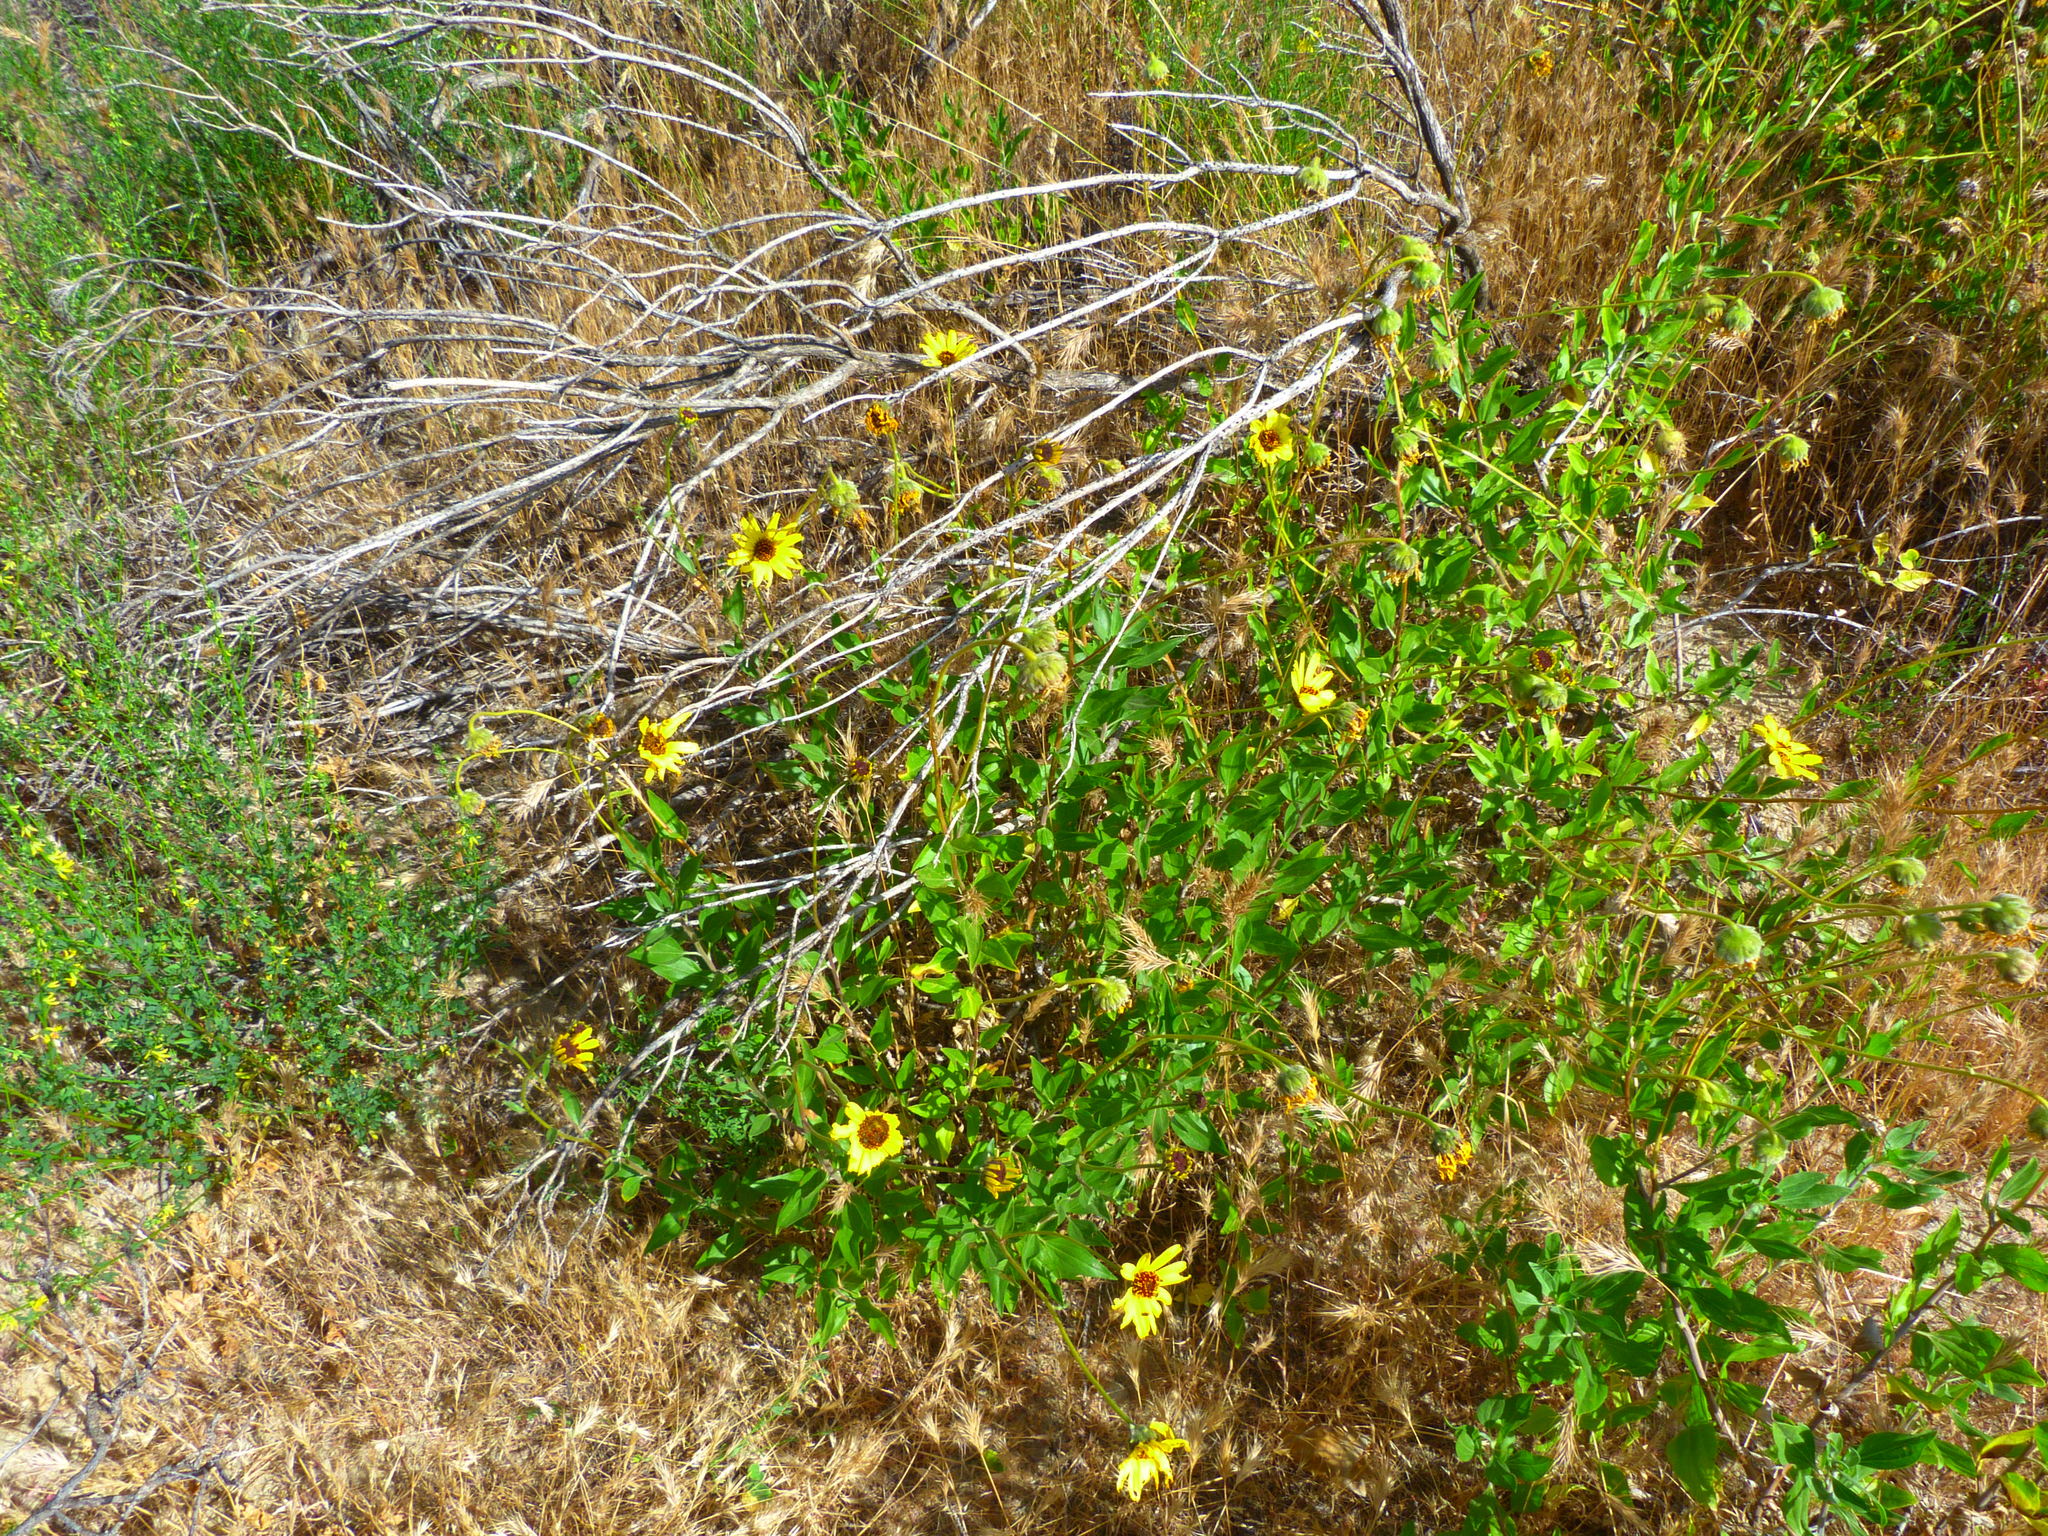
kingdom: Plantae
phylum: Tracheophyta
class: Magnoliopsida
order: Asterales
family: Asteraceae
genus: Encelia
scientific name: Encelia californica
